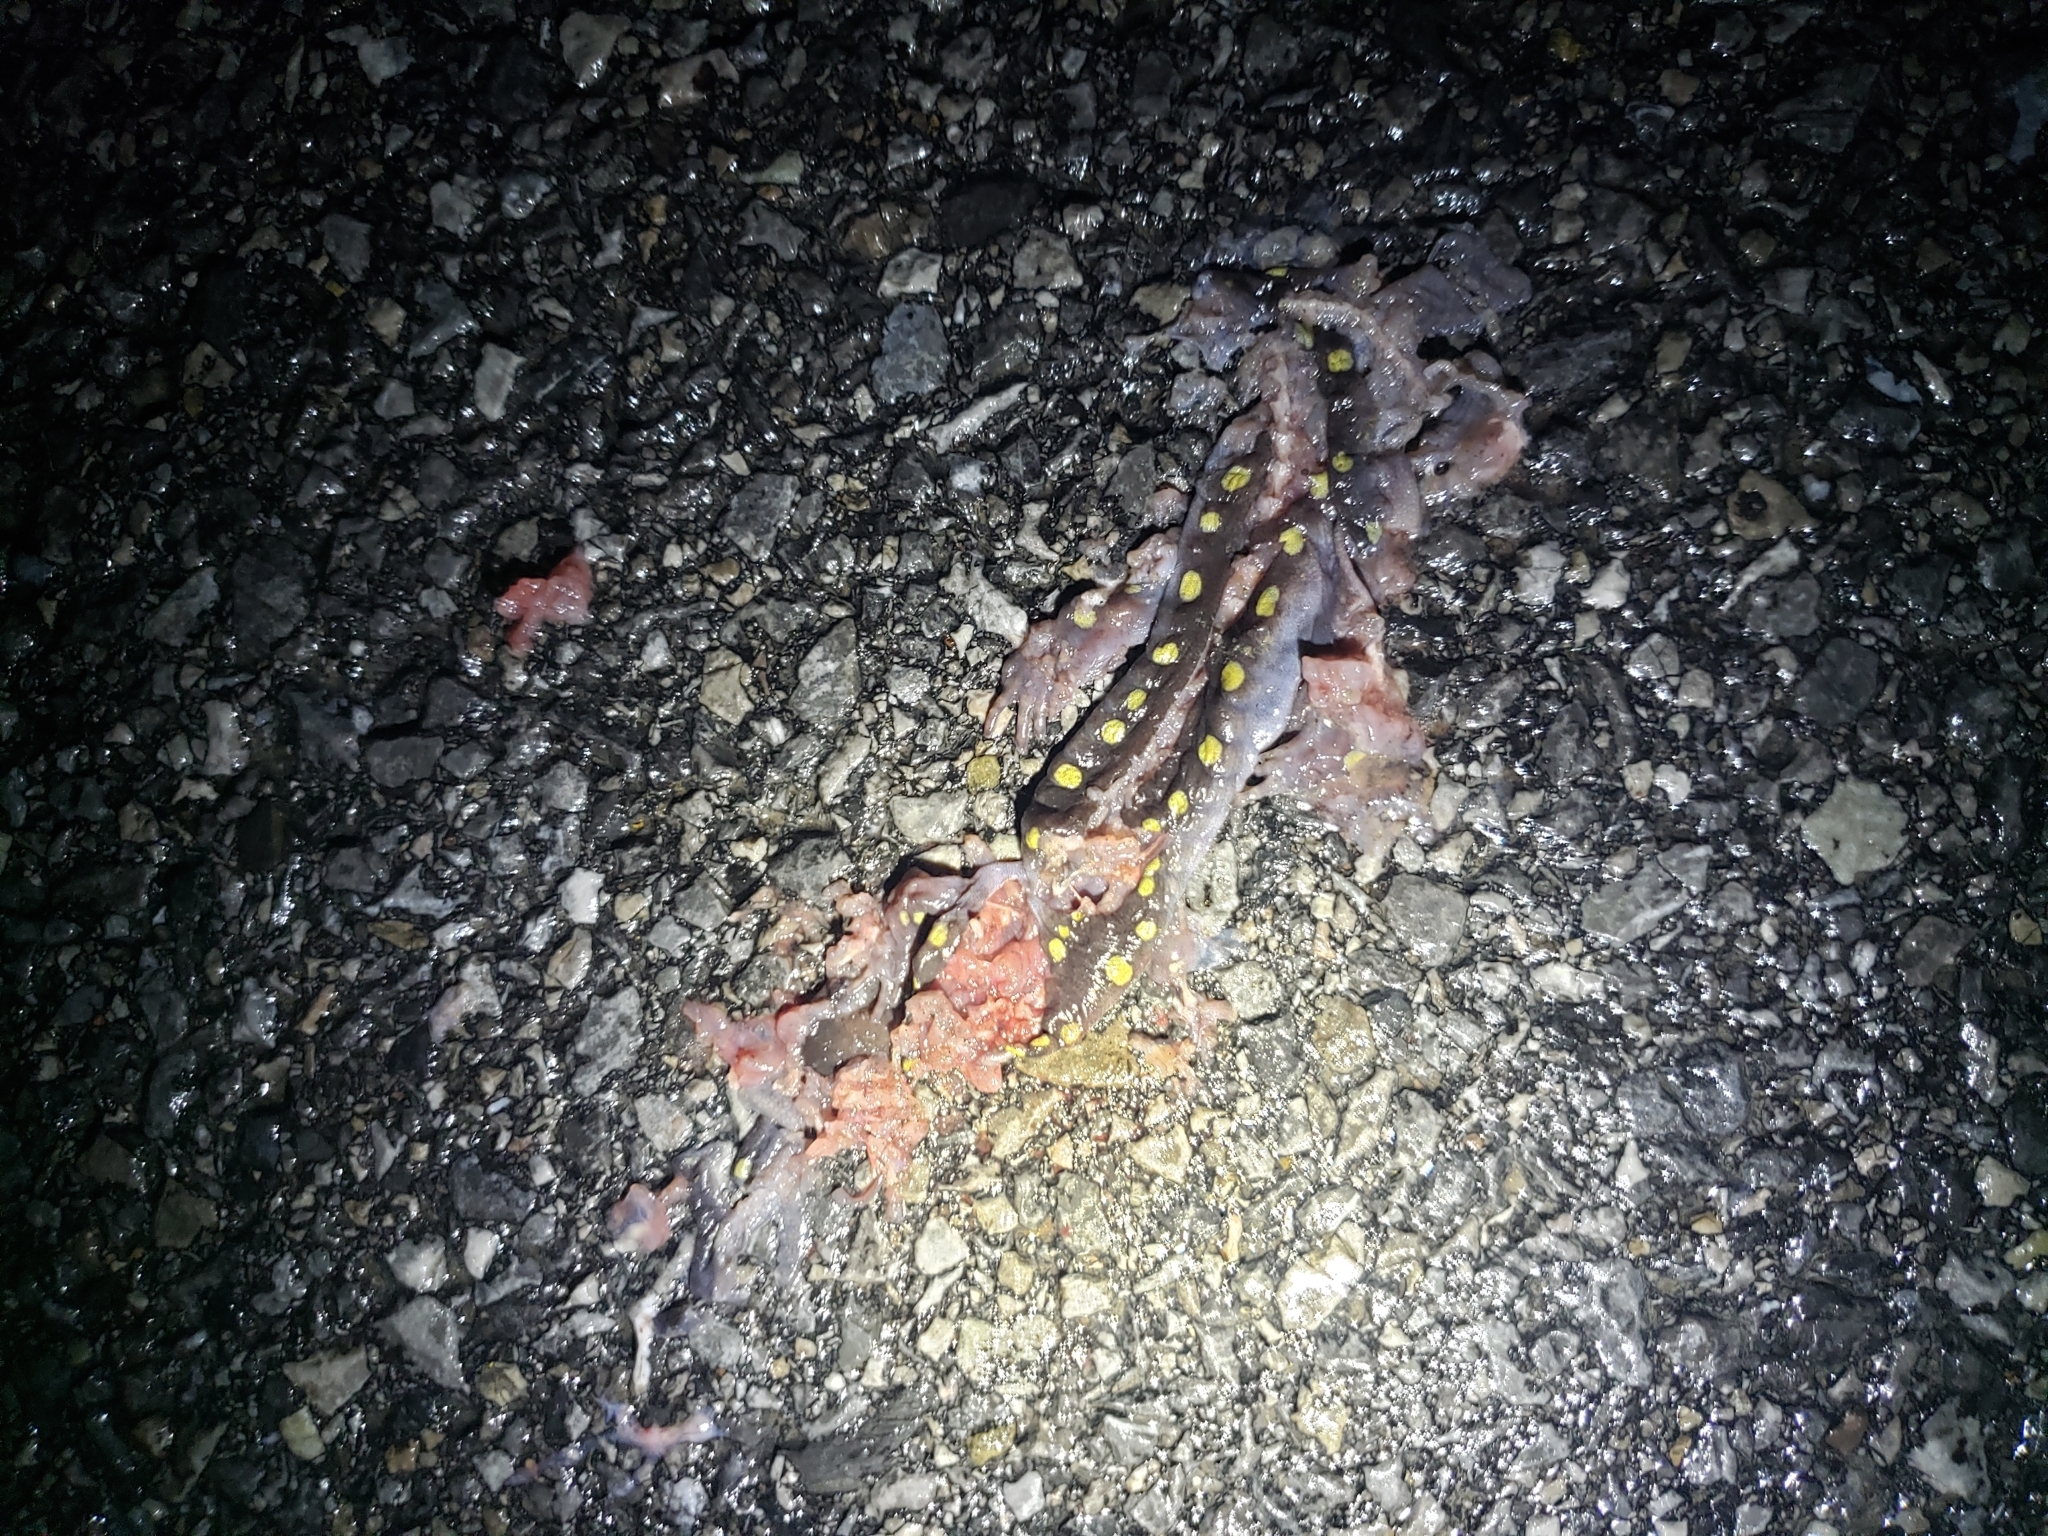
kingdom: Animalia
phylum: Chordata
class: Amphibia
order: Caudata
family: Ambystomatidae
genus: Ambystoma
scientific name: Ambystoma maculatum
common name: Spotted salamander
